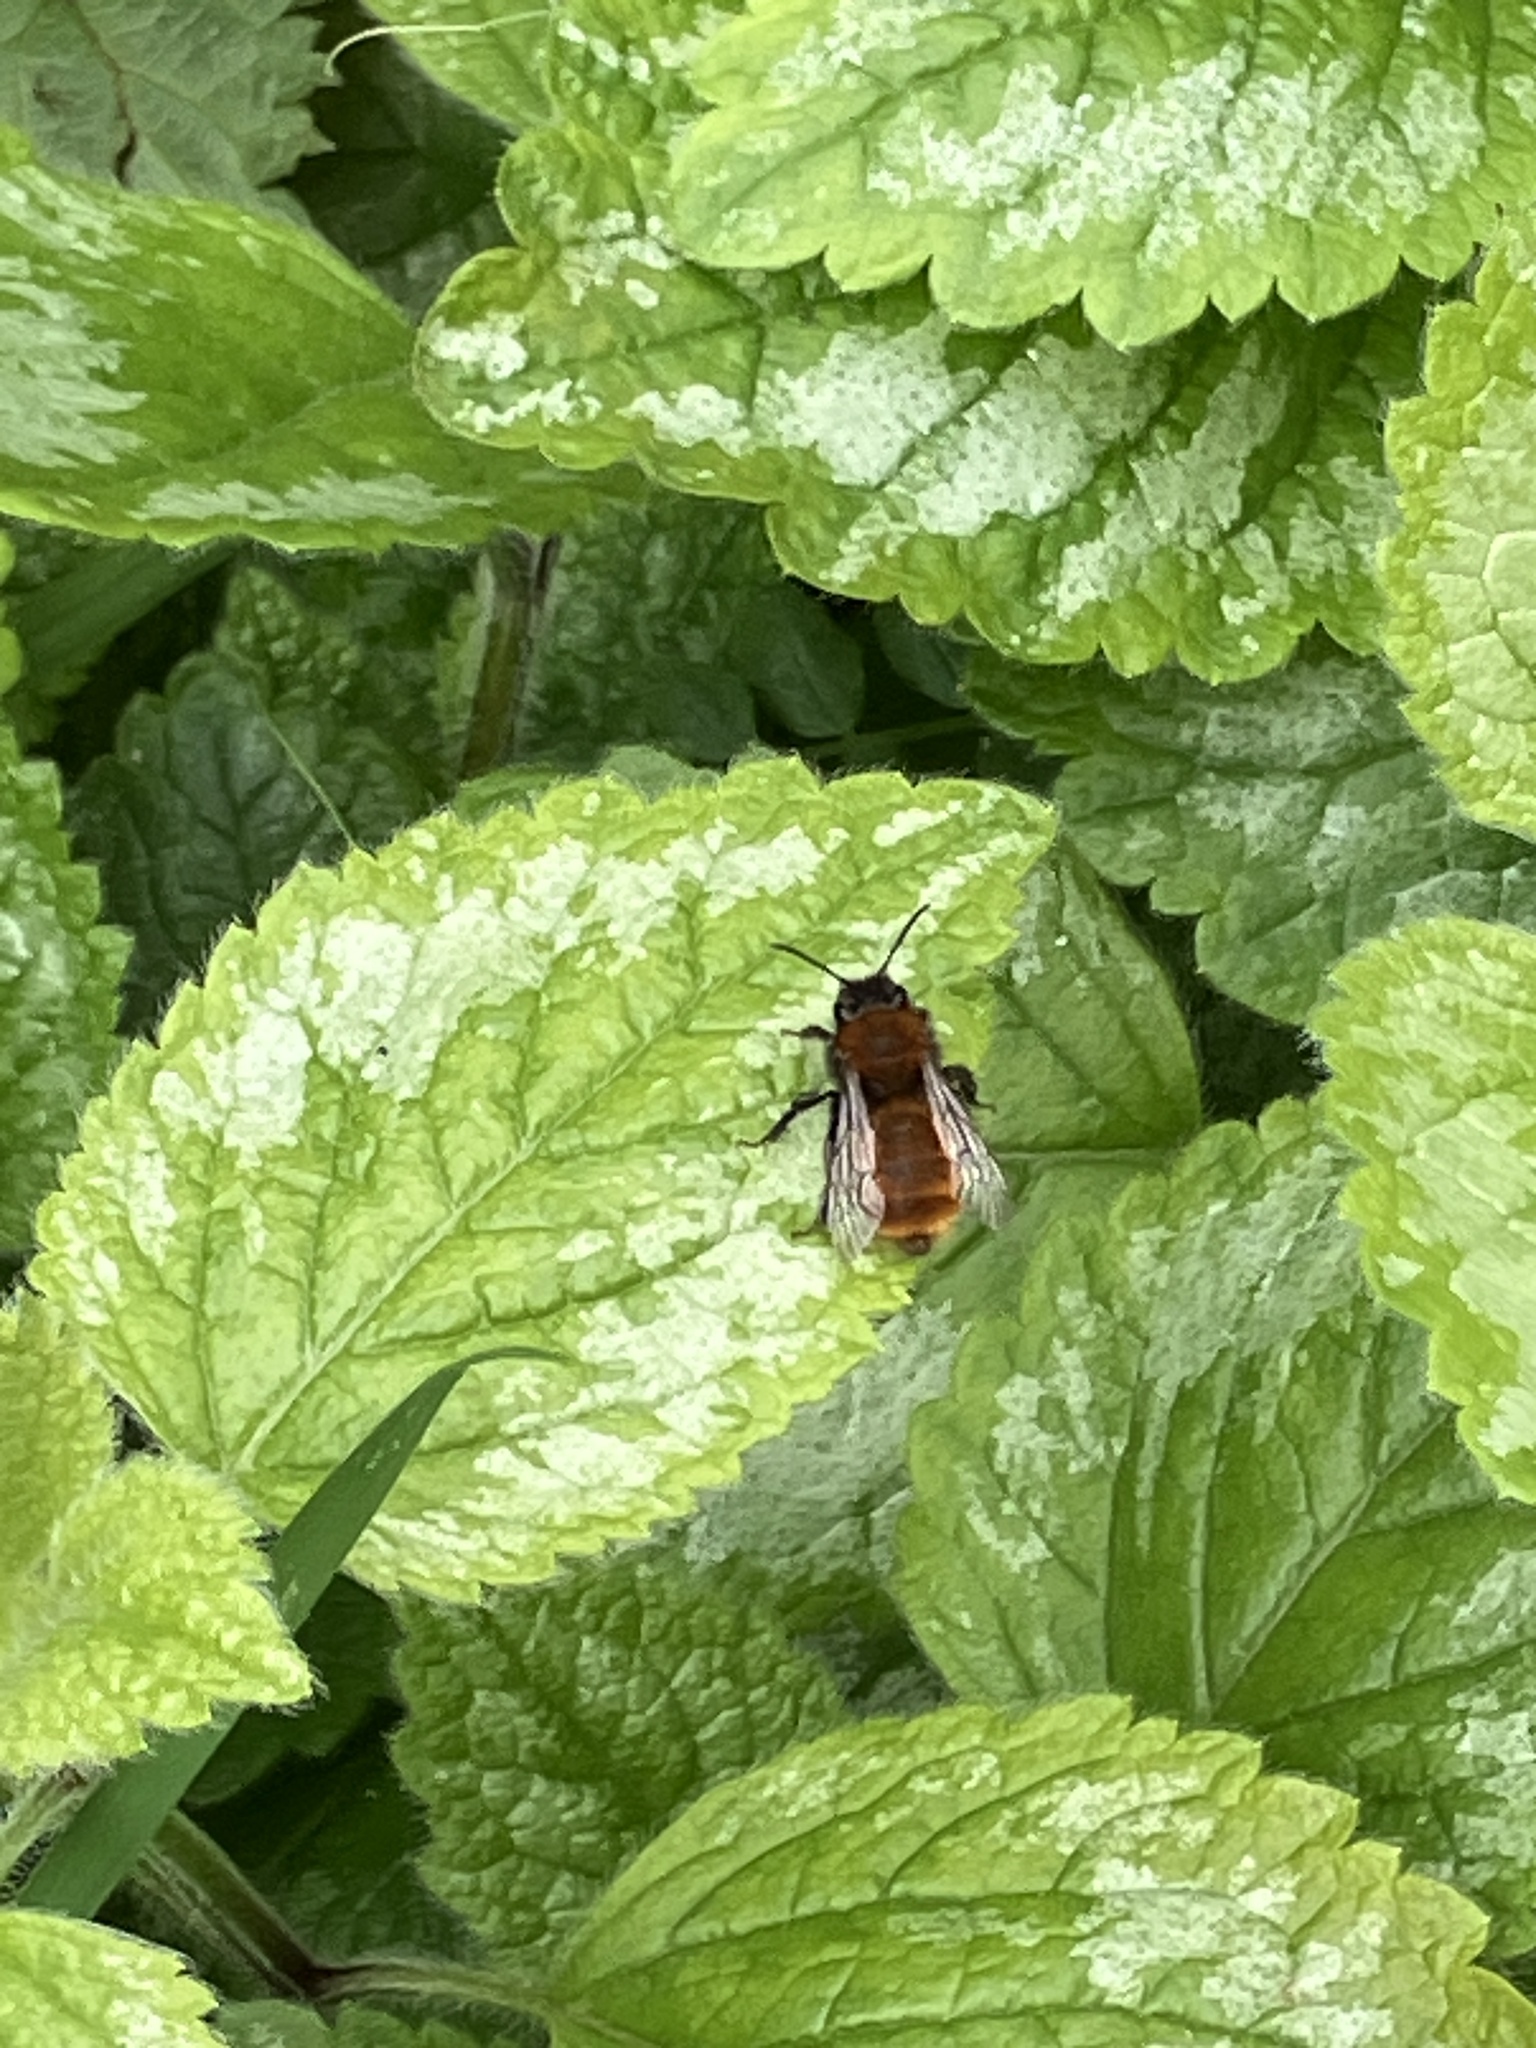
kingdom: Animalia
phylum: Arthropoda
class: Insecta
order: Hymenoptera
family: Andrenidae
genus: Andrena
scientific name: Andrena fulva
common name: Tawny mining bee
